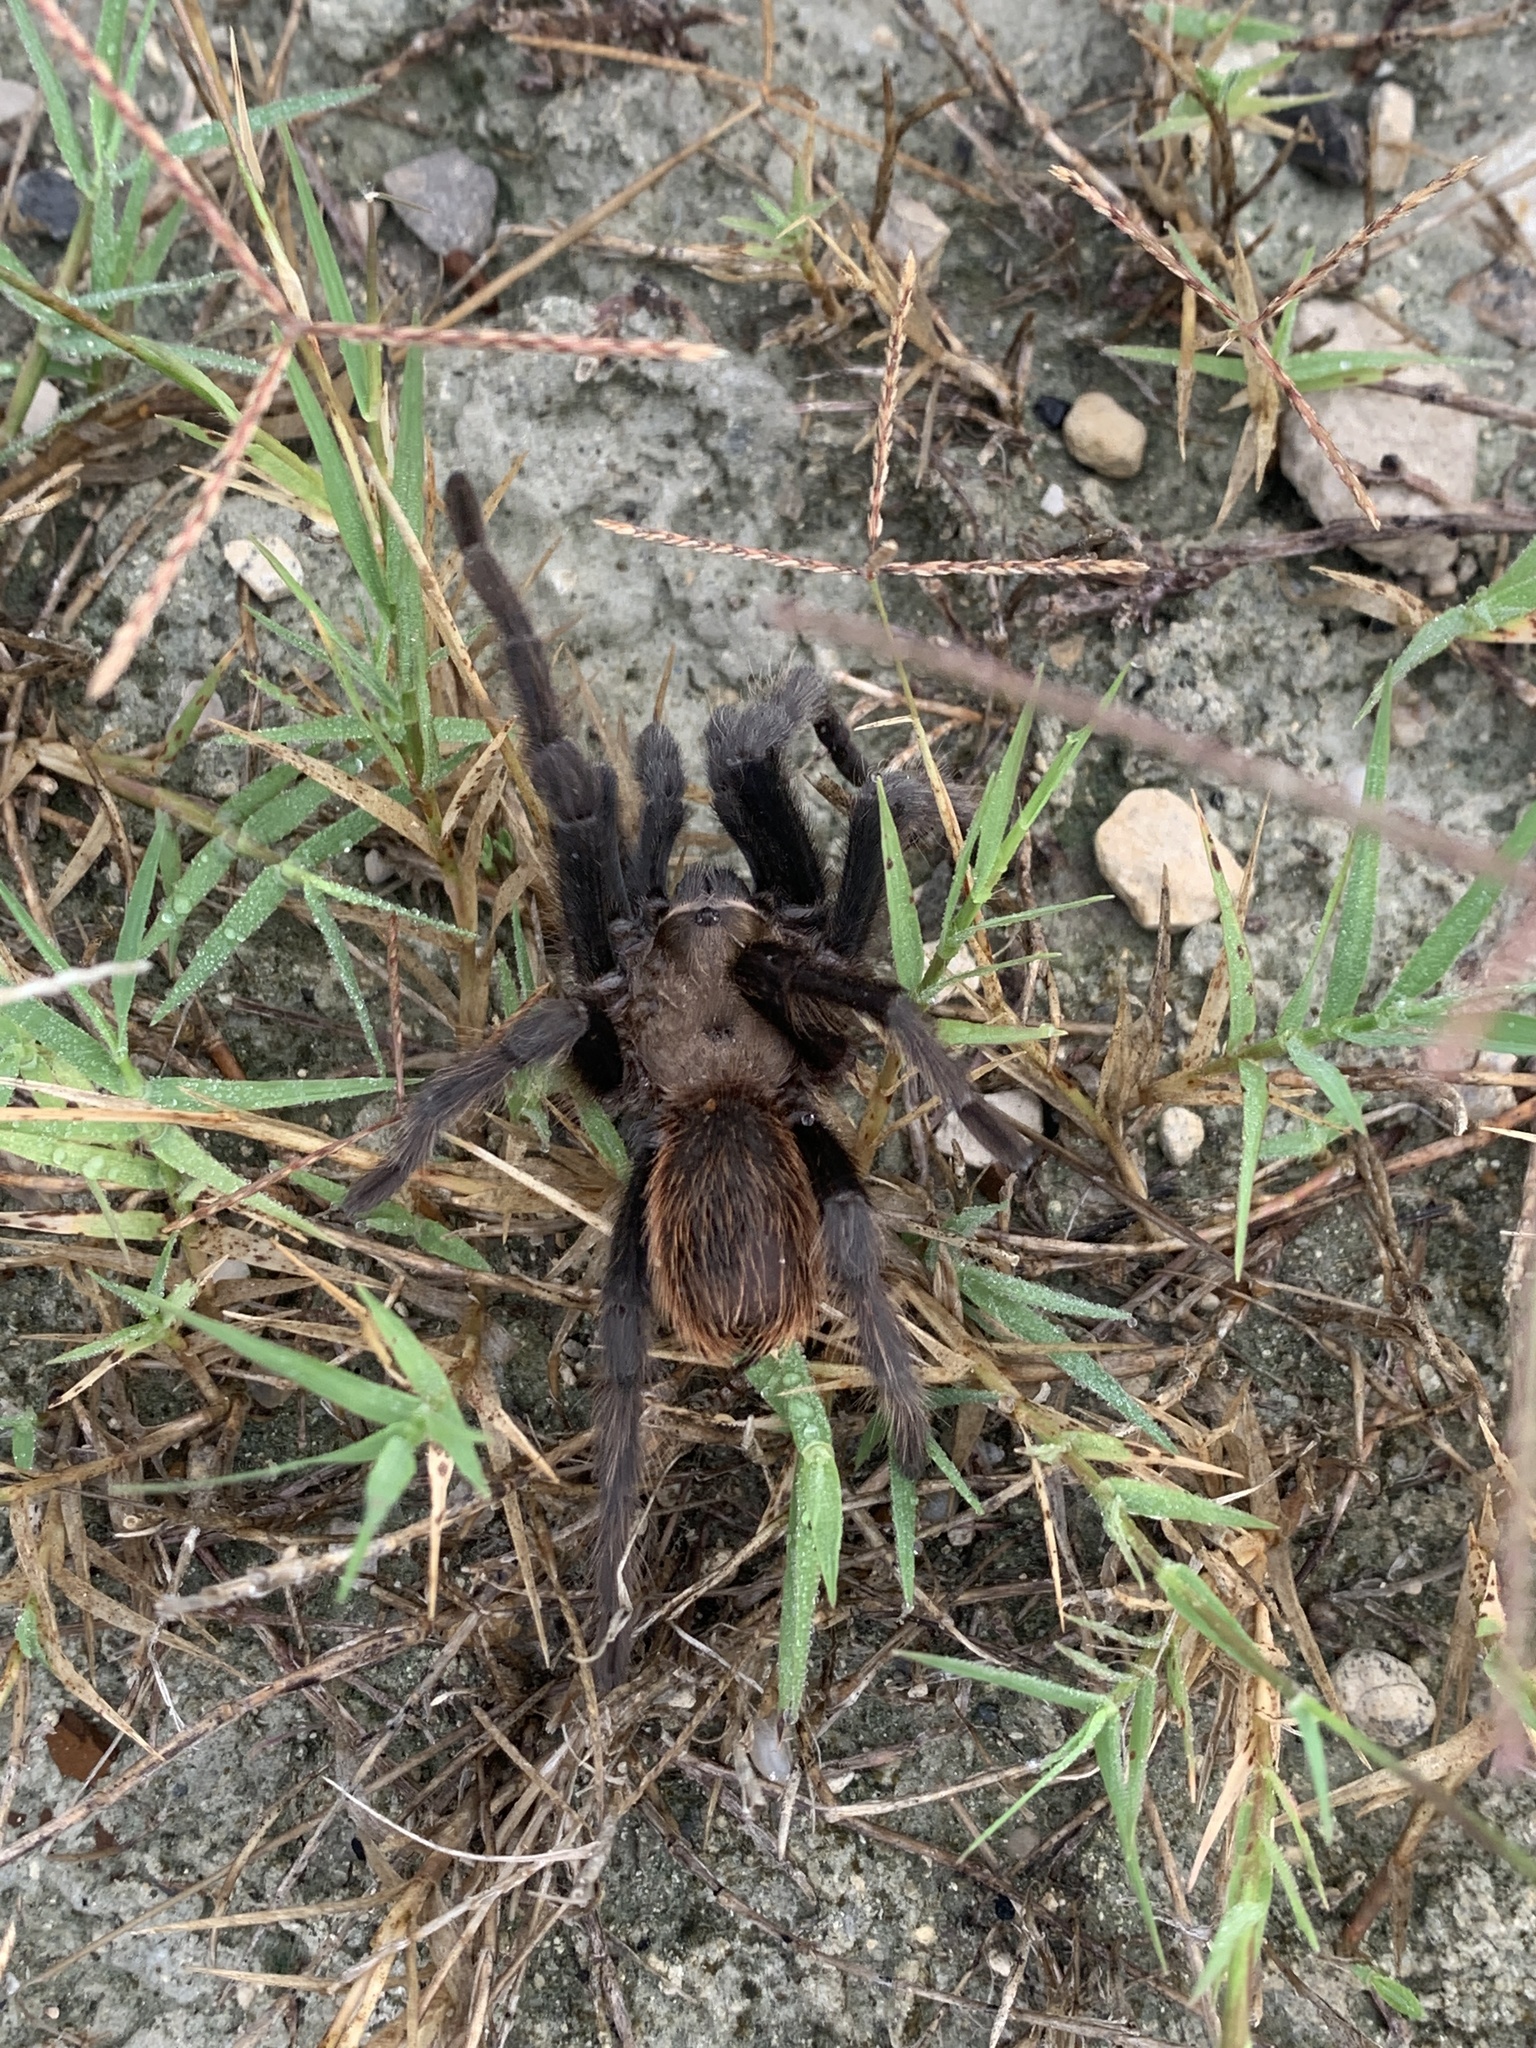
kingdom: Animalia
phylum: Arthropoda
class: Arachnida
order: Araneae
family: Theraphosidae
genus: Aphonopelma
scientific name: Aphonopelma hentzi
